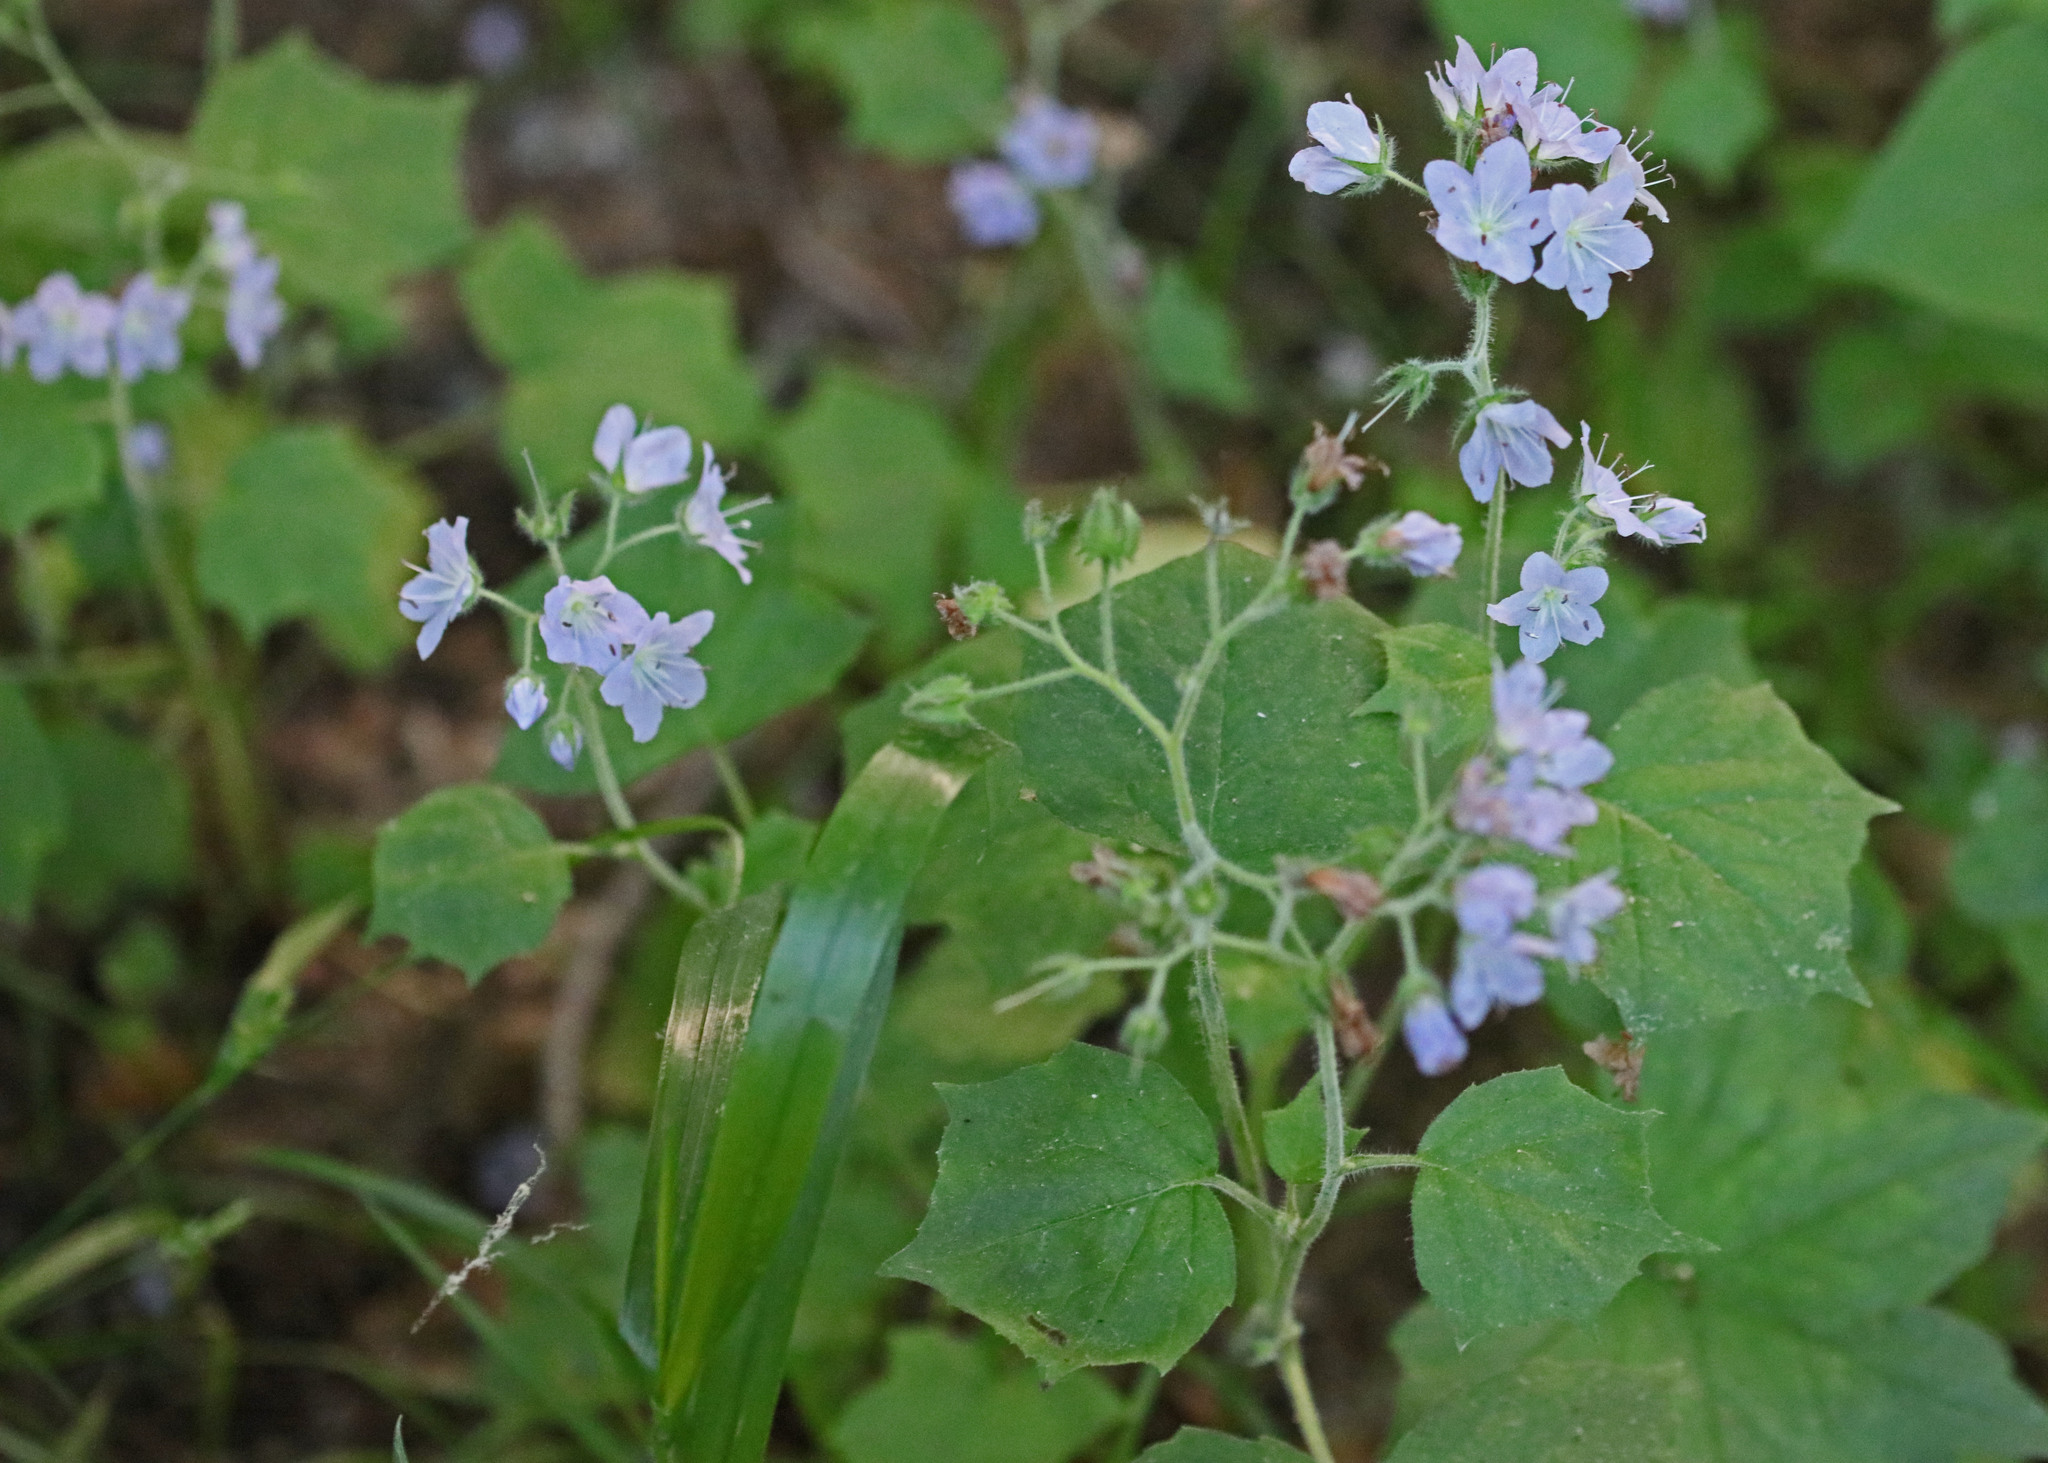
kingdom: Plantae
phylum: Tracheophyta
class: Magnoliopsida
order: Boraginales
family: Hydrophyllaceae
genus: Hydrophyllum
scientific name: Hydrophyllum appendiculatum
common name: Appendaged waterleaf
